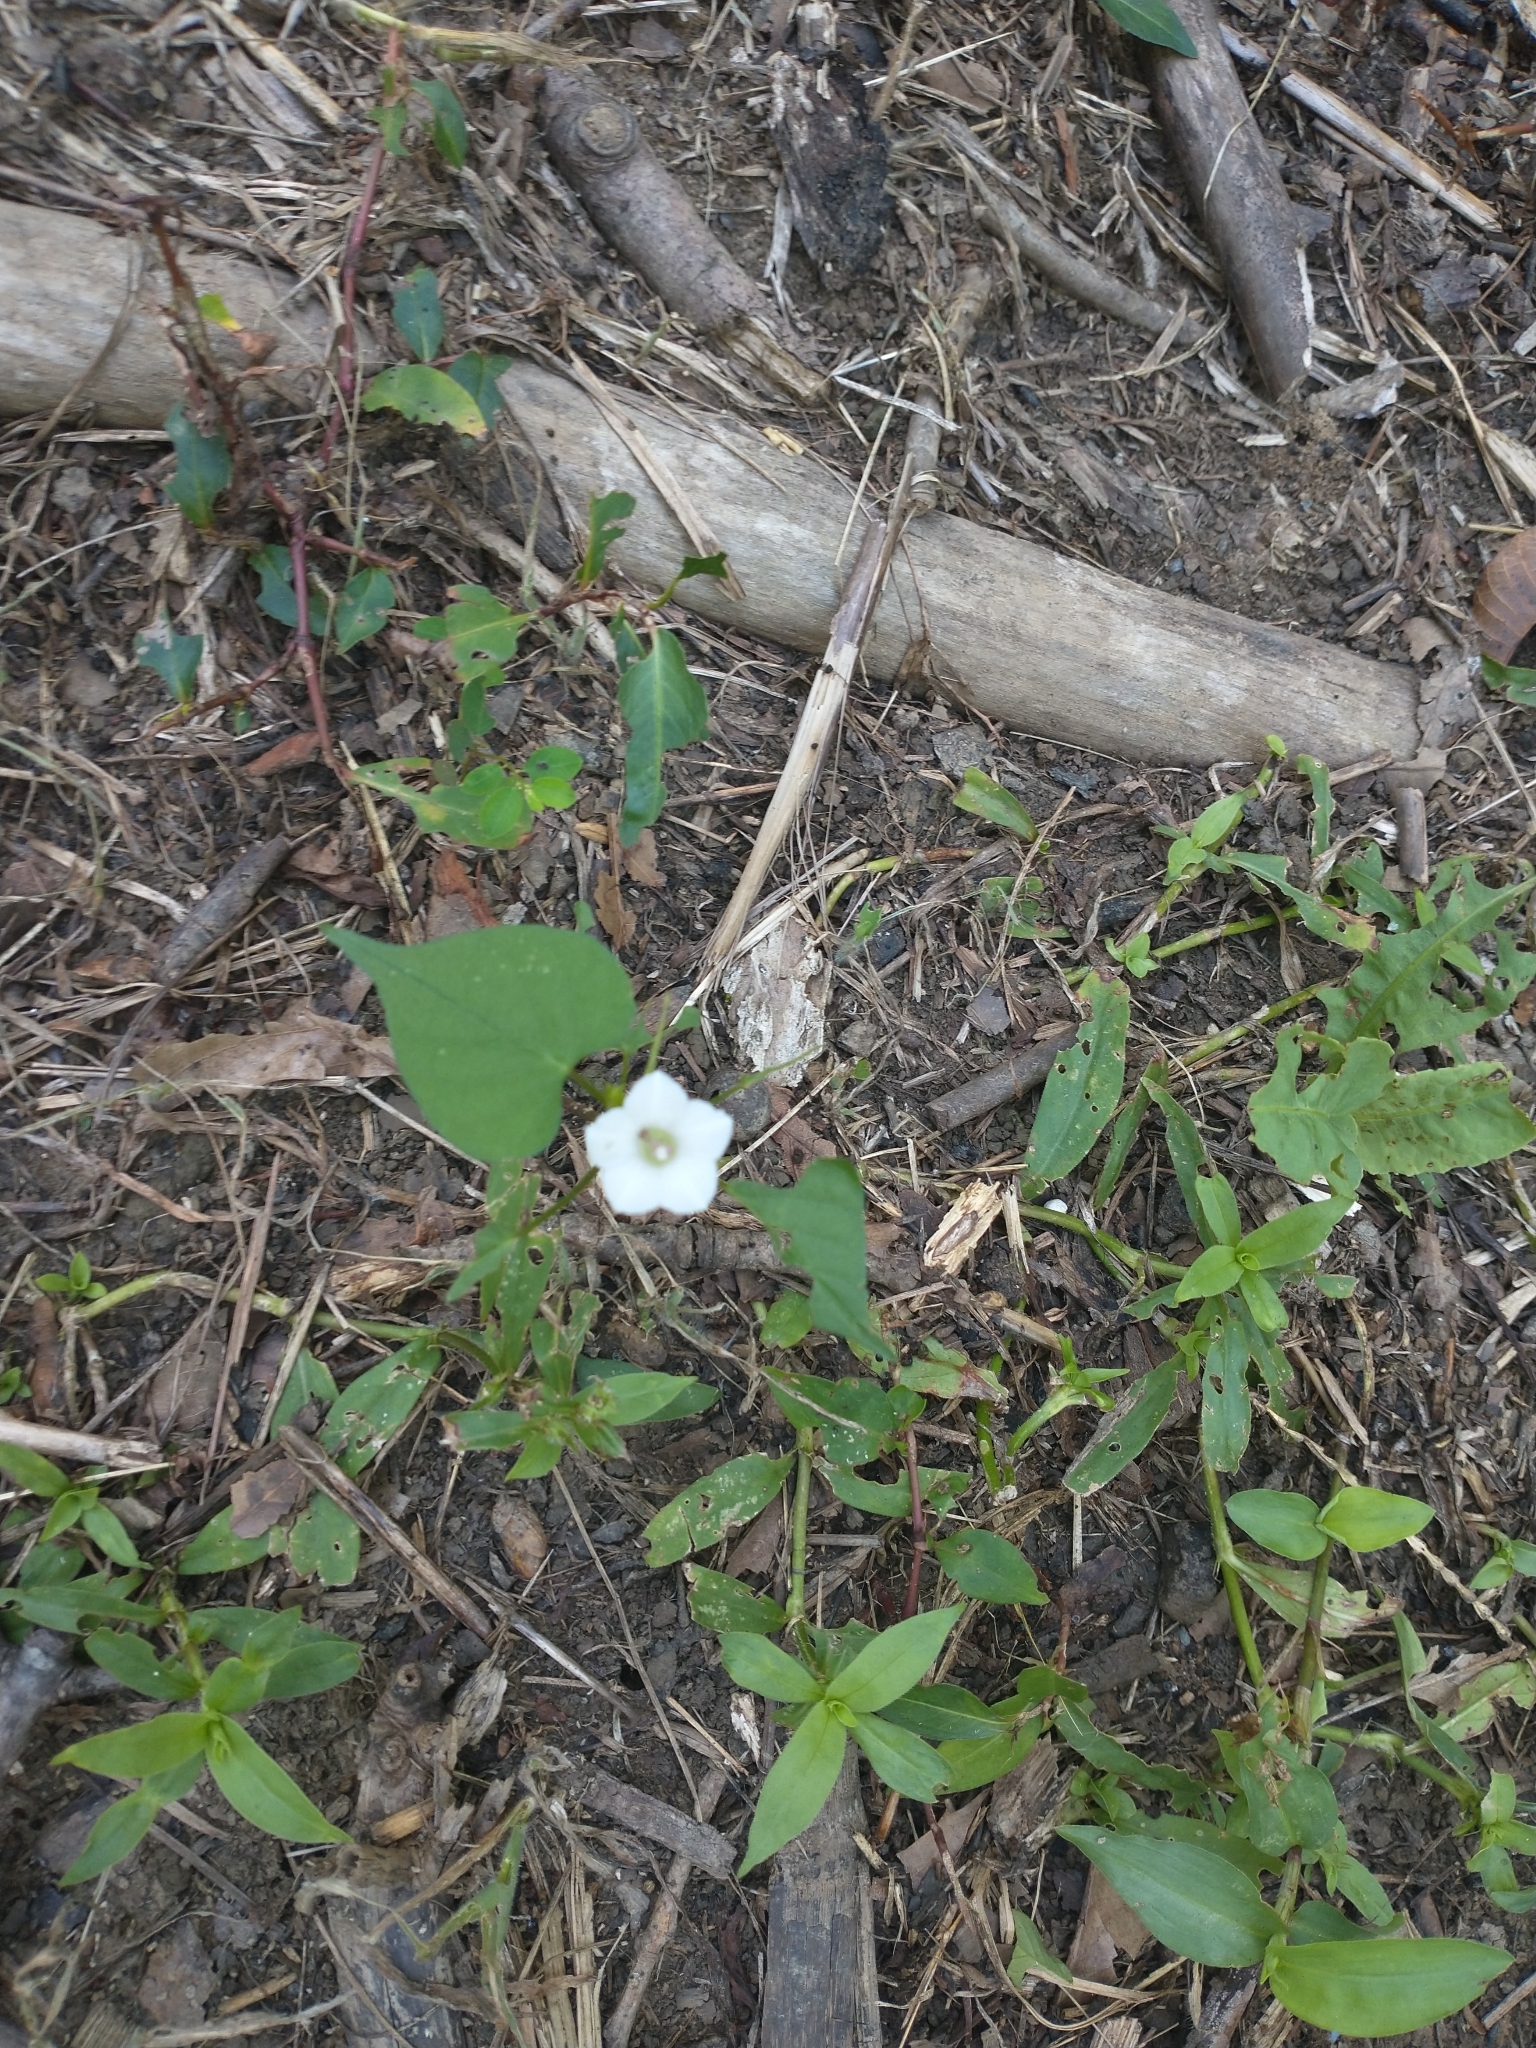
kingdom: Plantae
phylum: Tracheophyta
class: Magnoliopsida
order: Solanales
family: Convolvulaceae
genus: Ipomoea
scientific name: Ipomoea lacunosa
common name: White morning-glory
